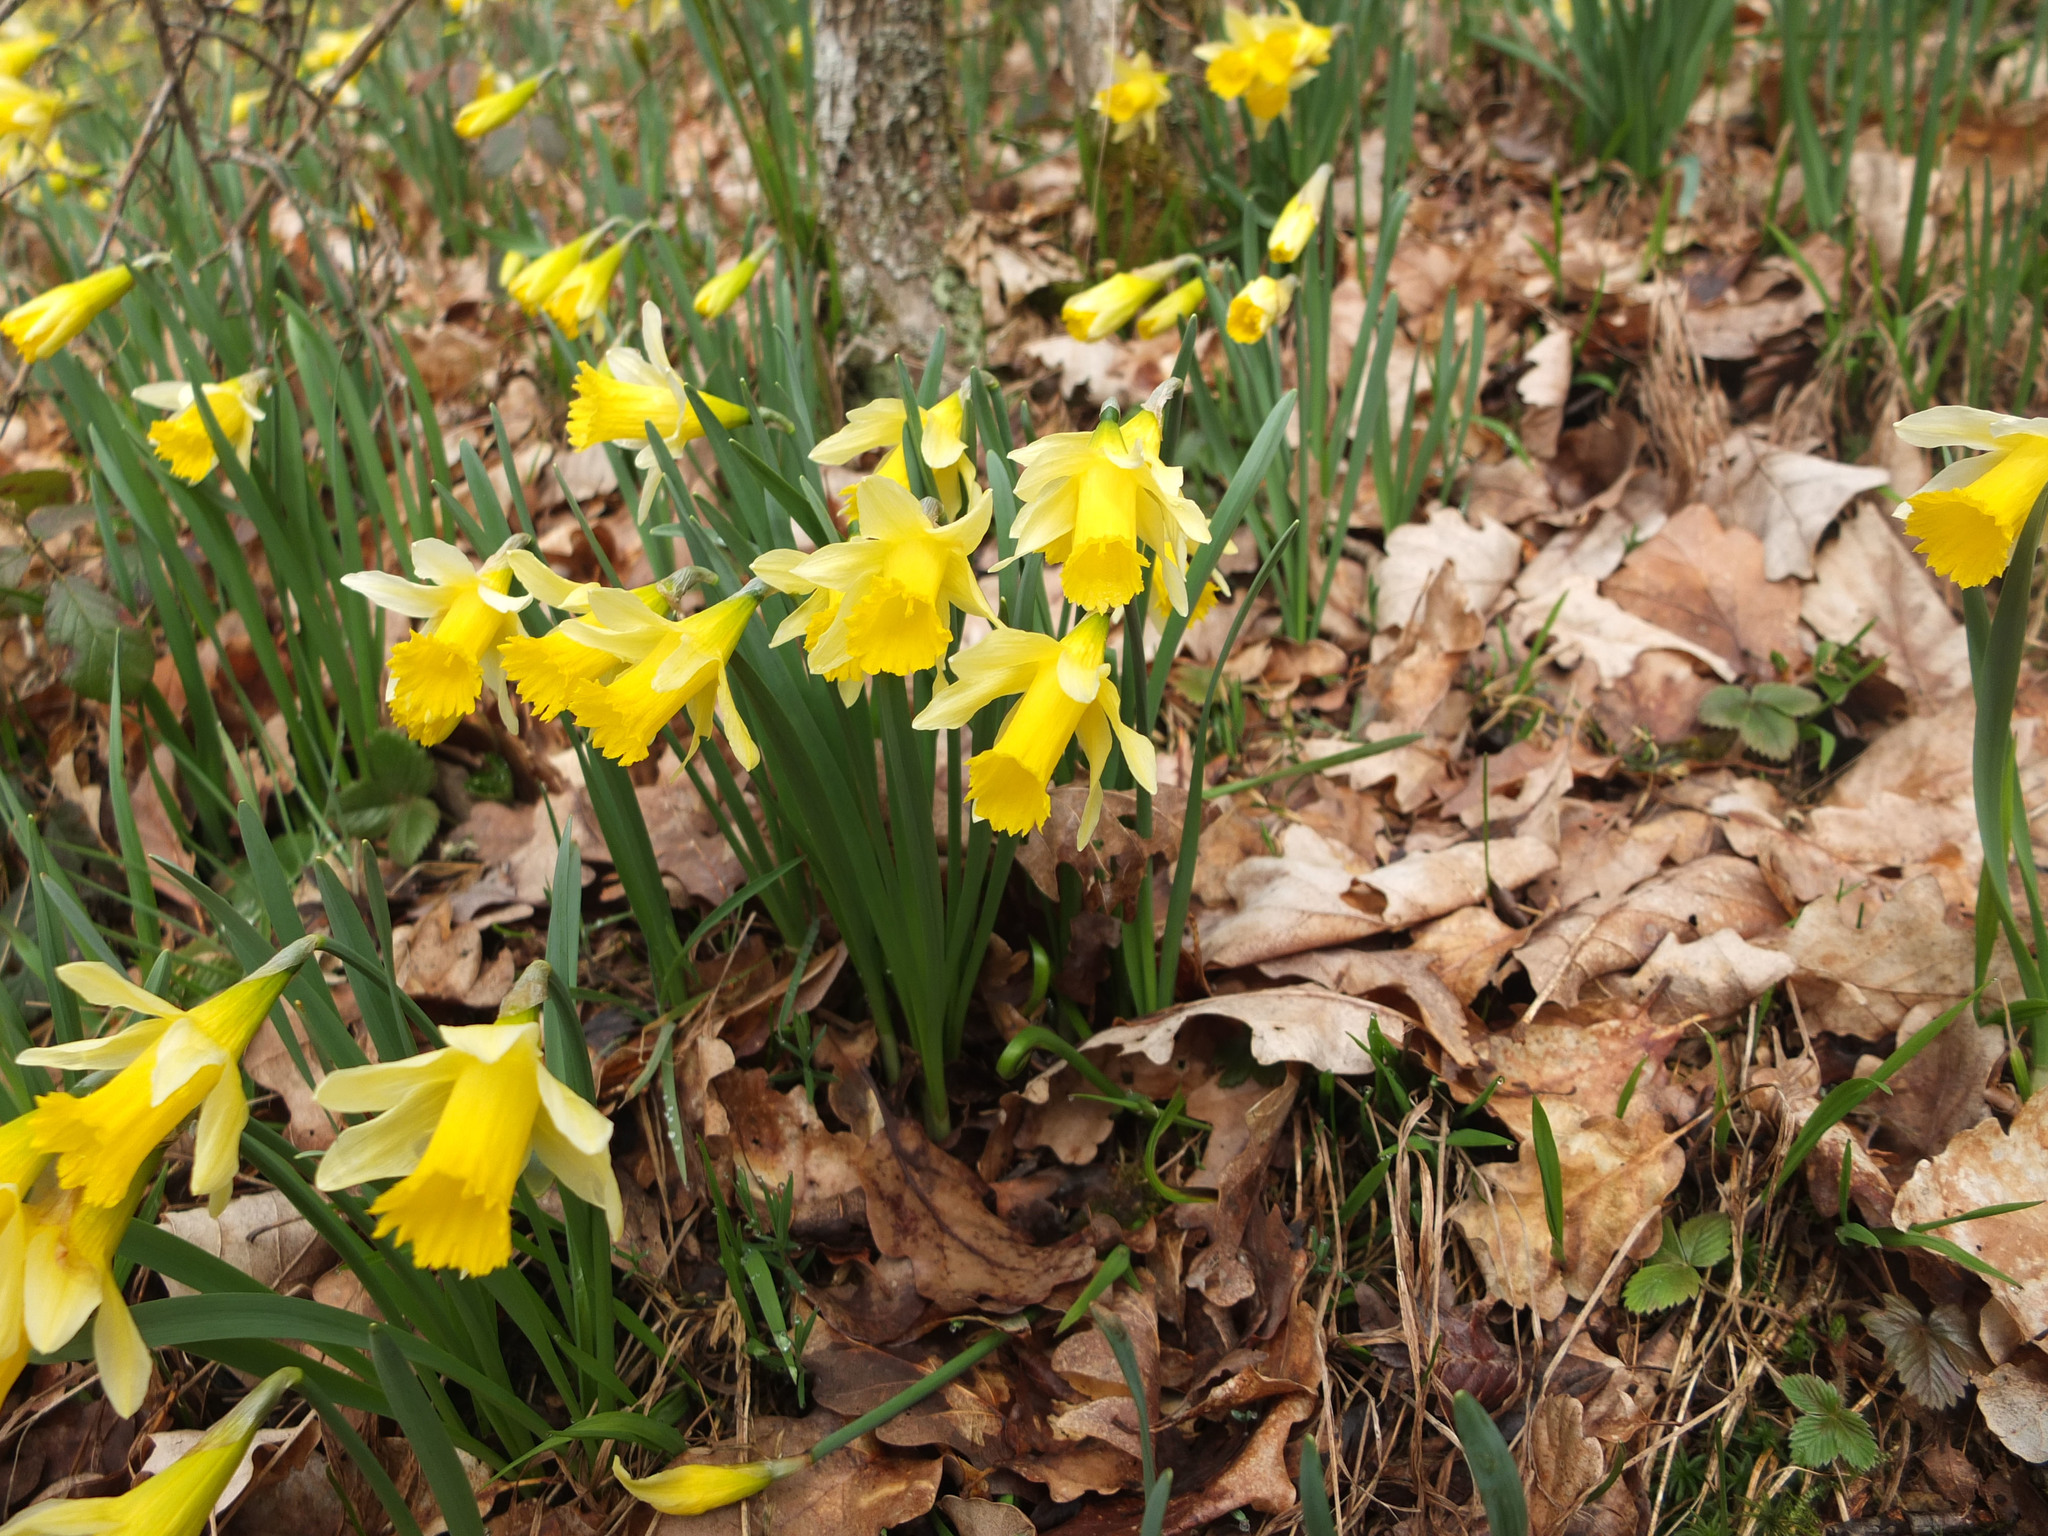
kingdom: Plantae
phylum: Tracheophyta
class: Liliopsida
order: Asparagales
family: Amaryllidaceae
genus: Narcissus
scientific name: Narcissus pseudonarcissus
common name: Daffodil
